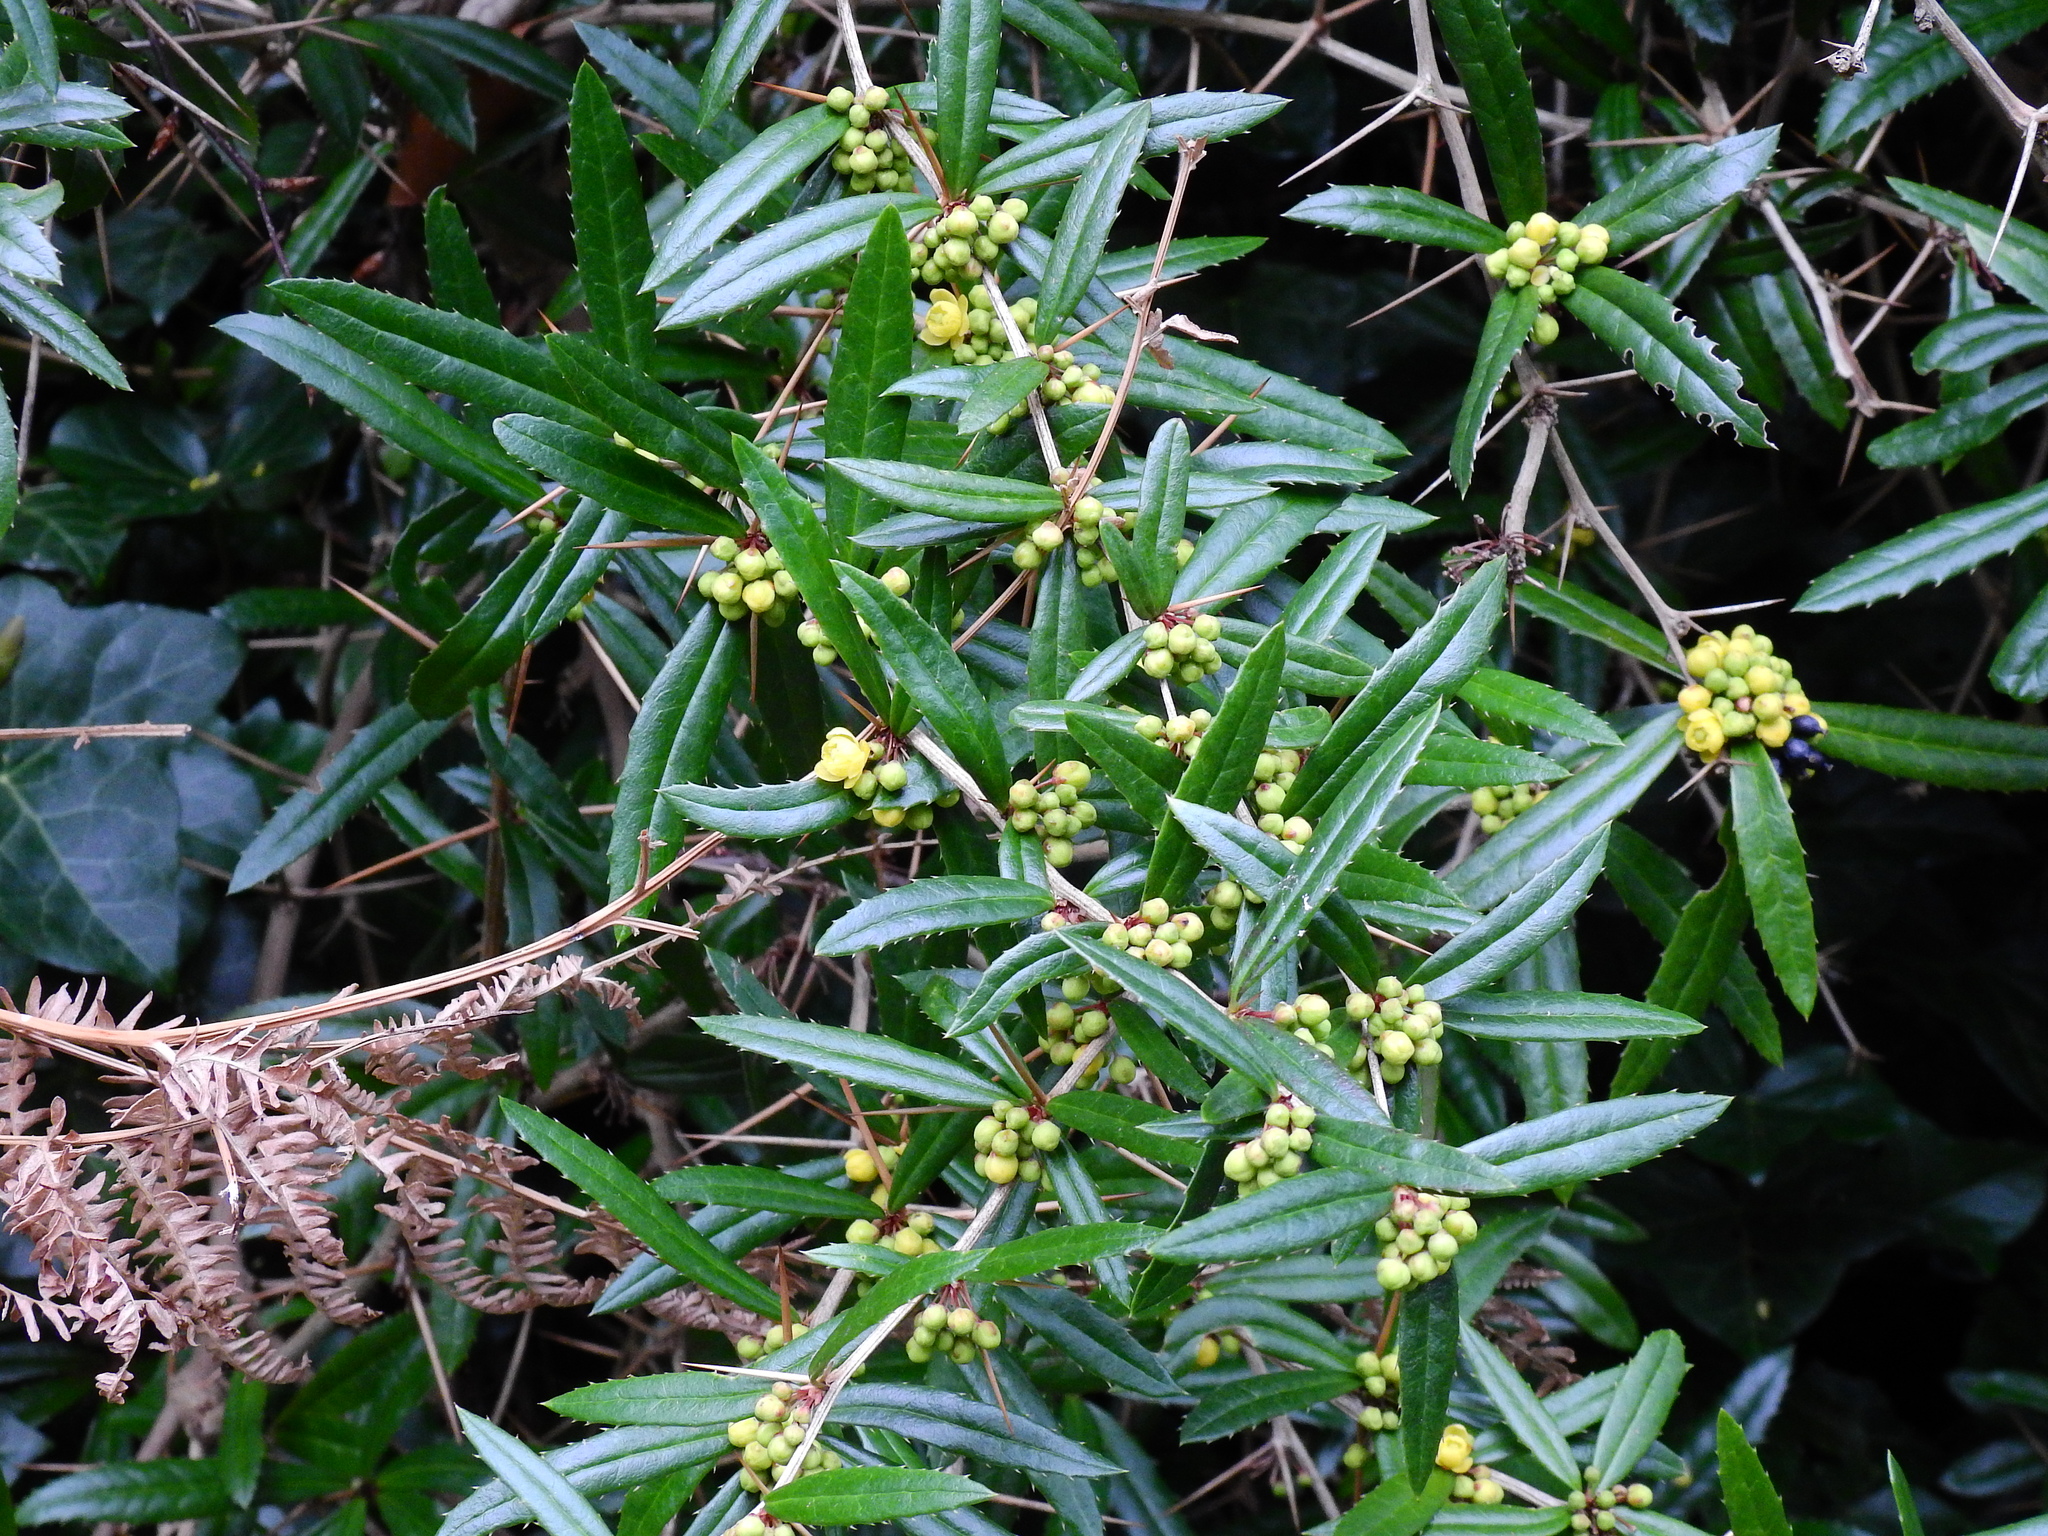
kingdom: Plantae
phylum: Tracheophyta
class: Magnoliopsida
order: Ranunculales
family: Berberidaceae
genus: Berberis
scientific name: Berberis julianae
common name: Wintergreen barberry
